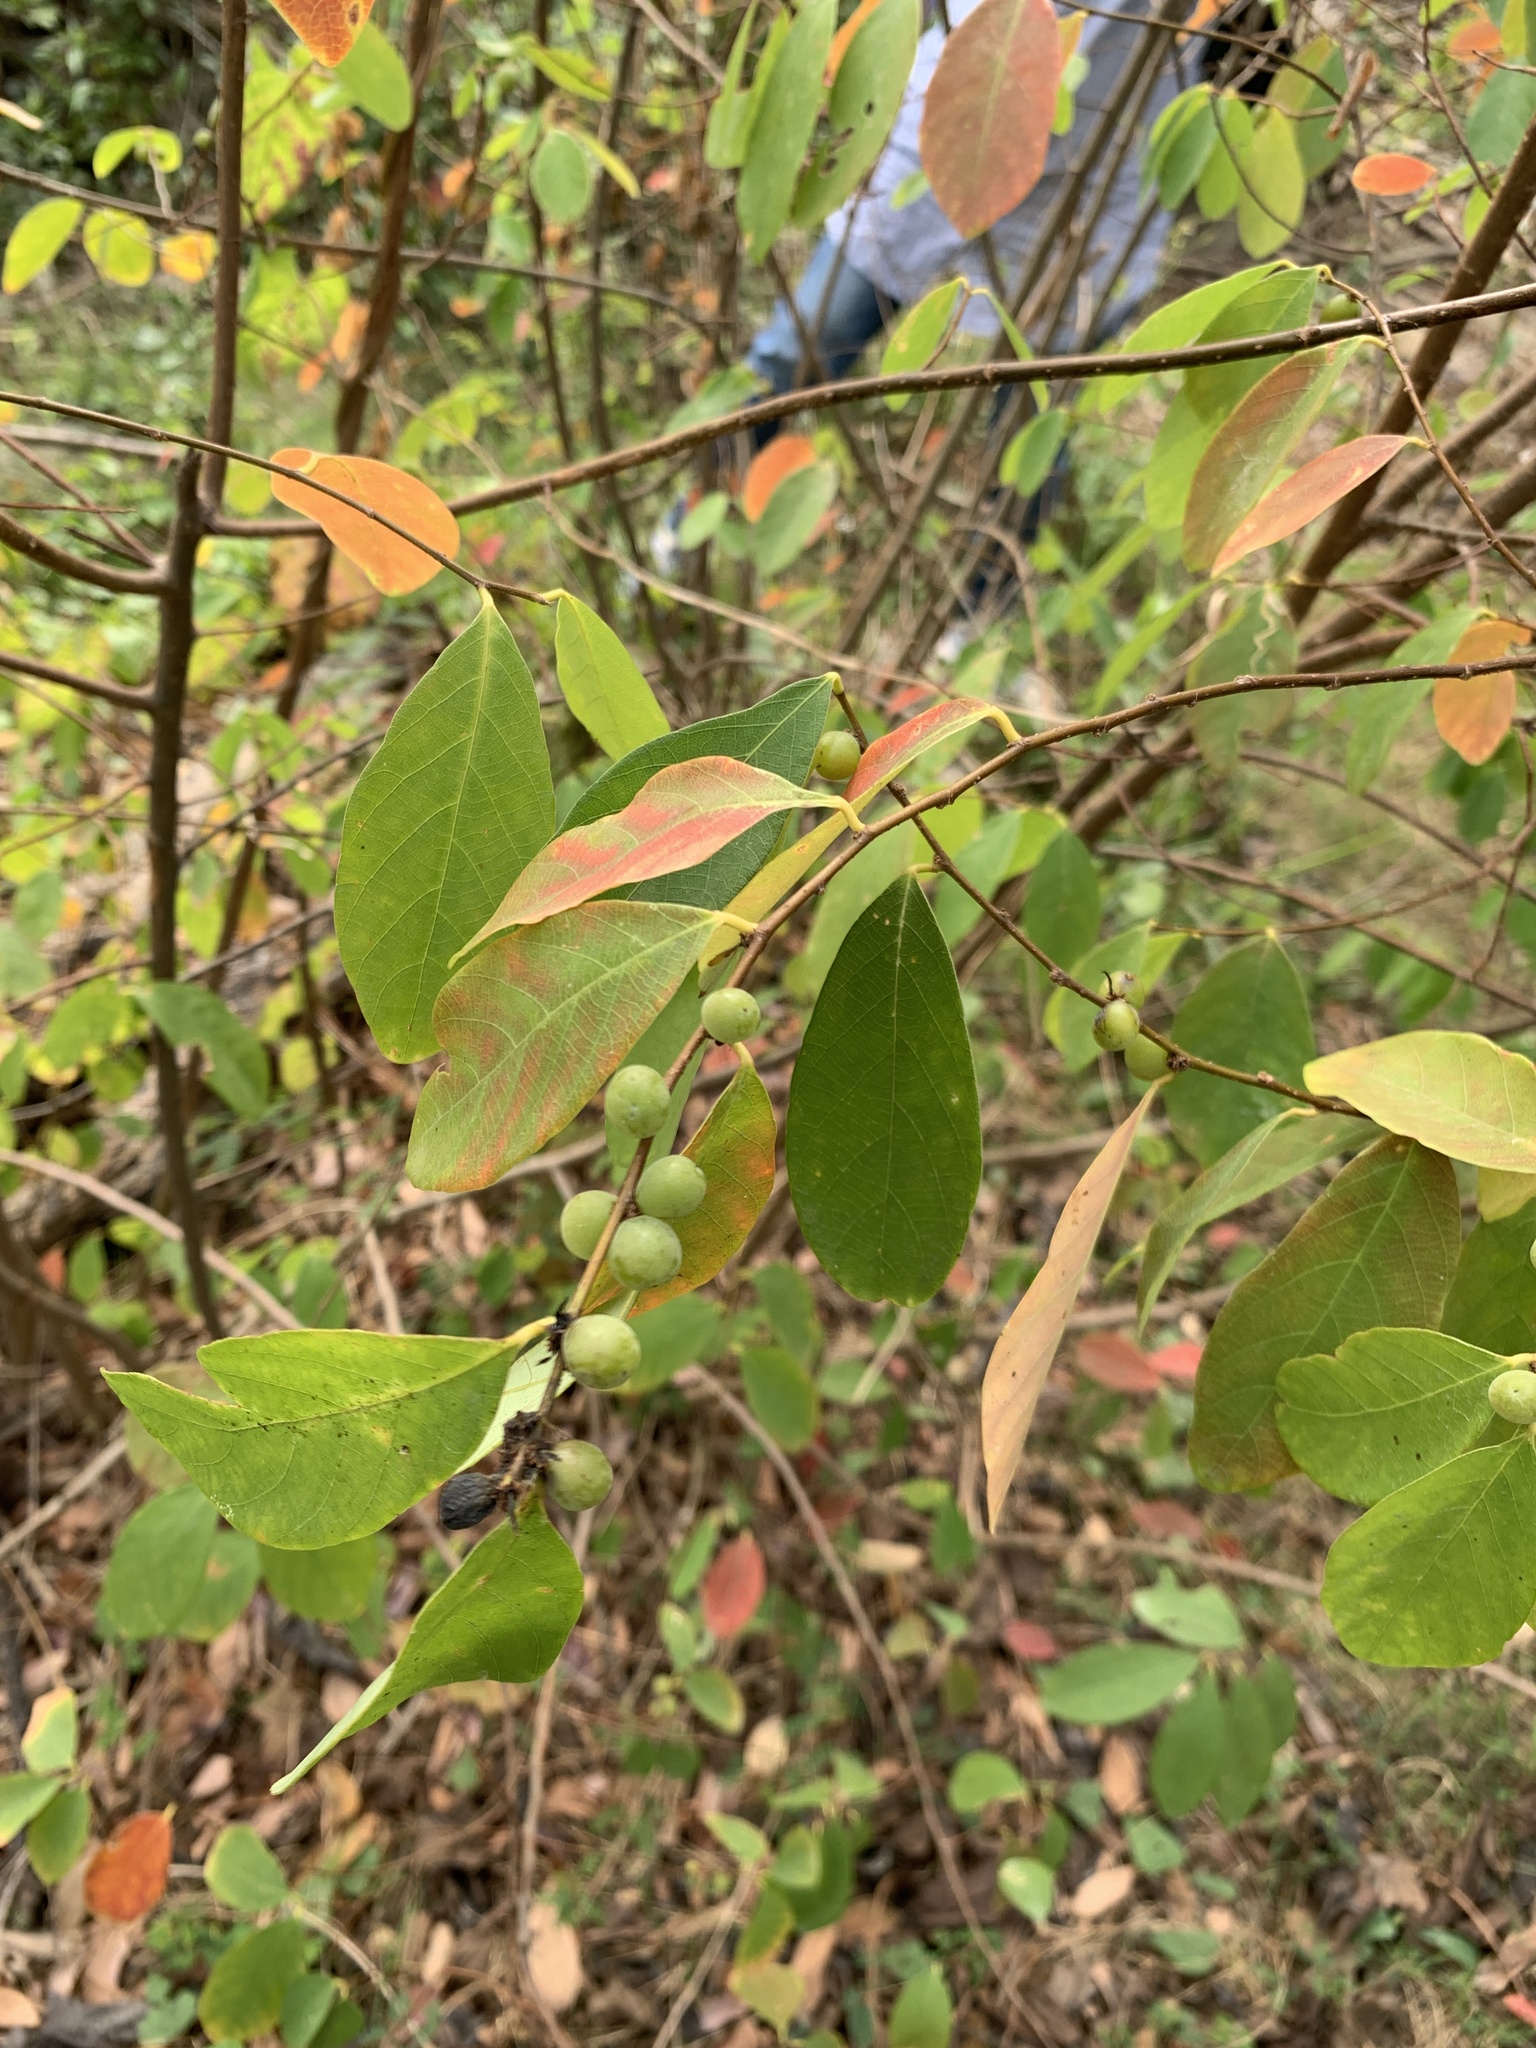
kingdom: Plantae
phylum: Tracheophyta
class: Magnoliopsida
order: Malpighiales
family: Phyllanthaceae
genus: Bridelia
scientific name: Bridelia tomentosa
